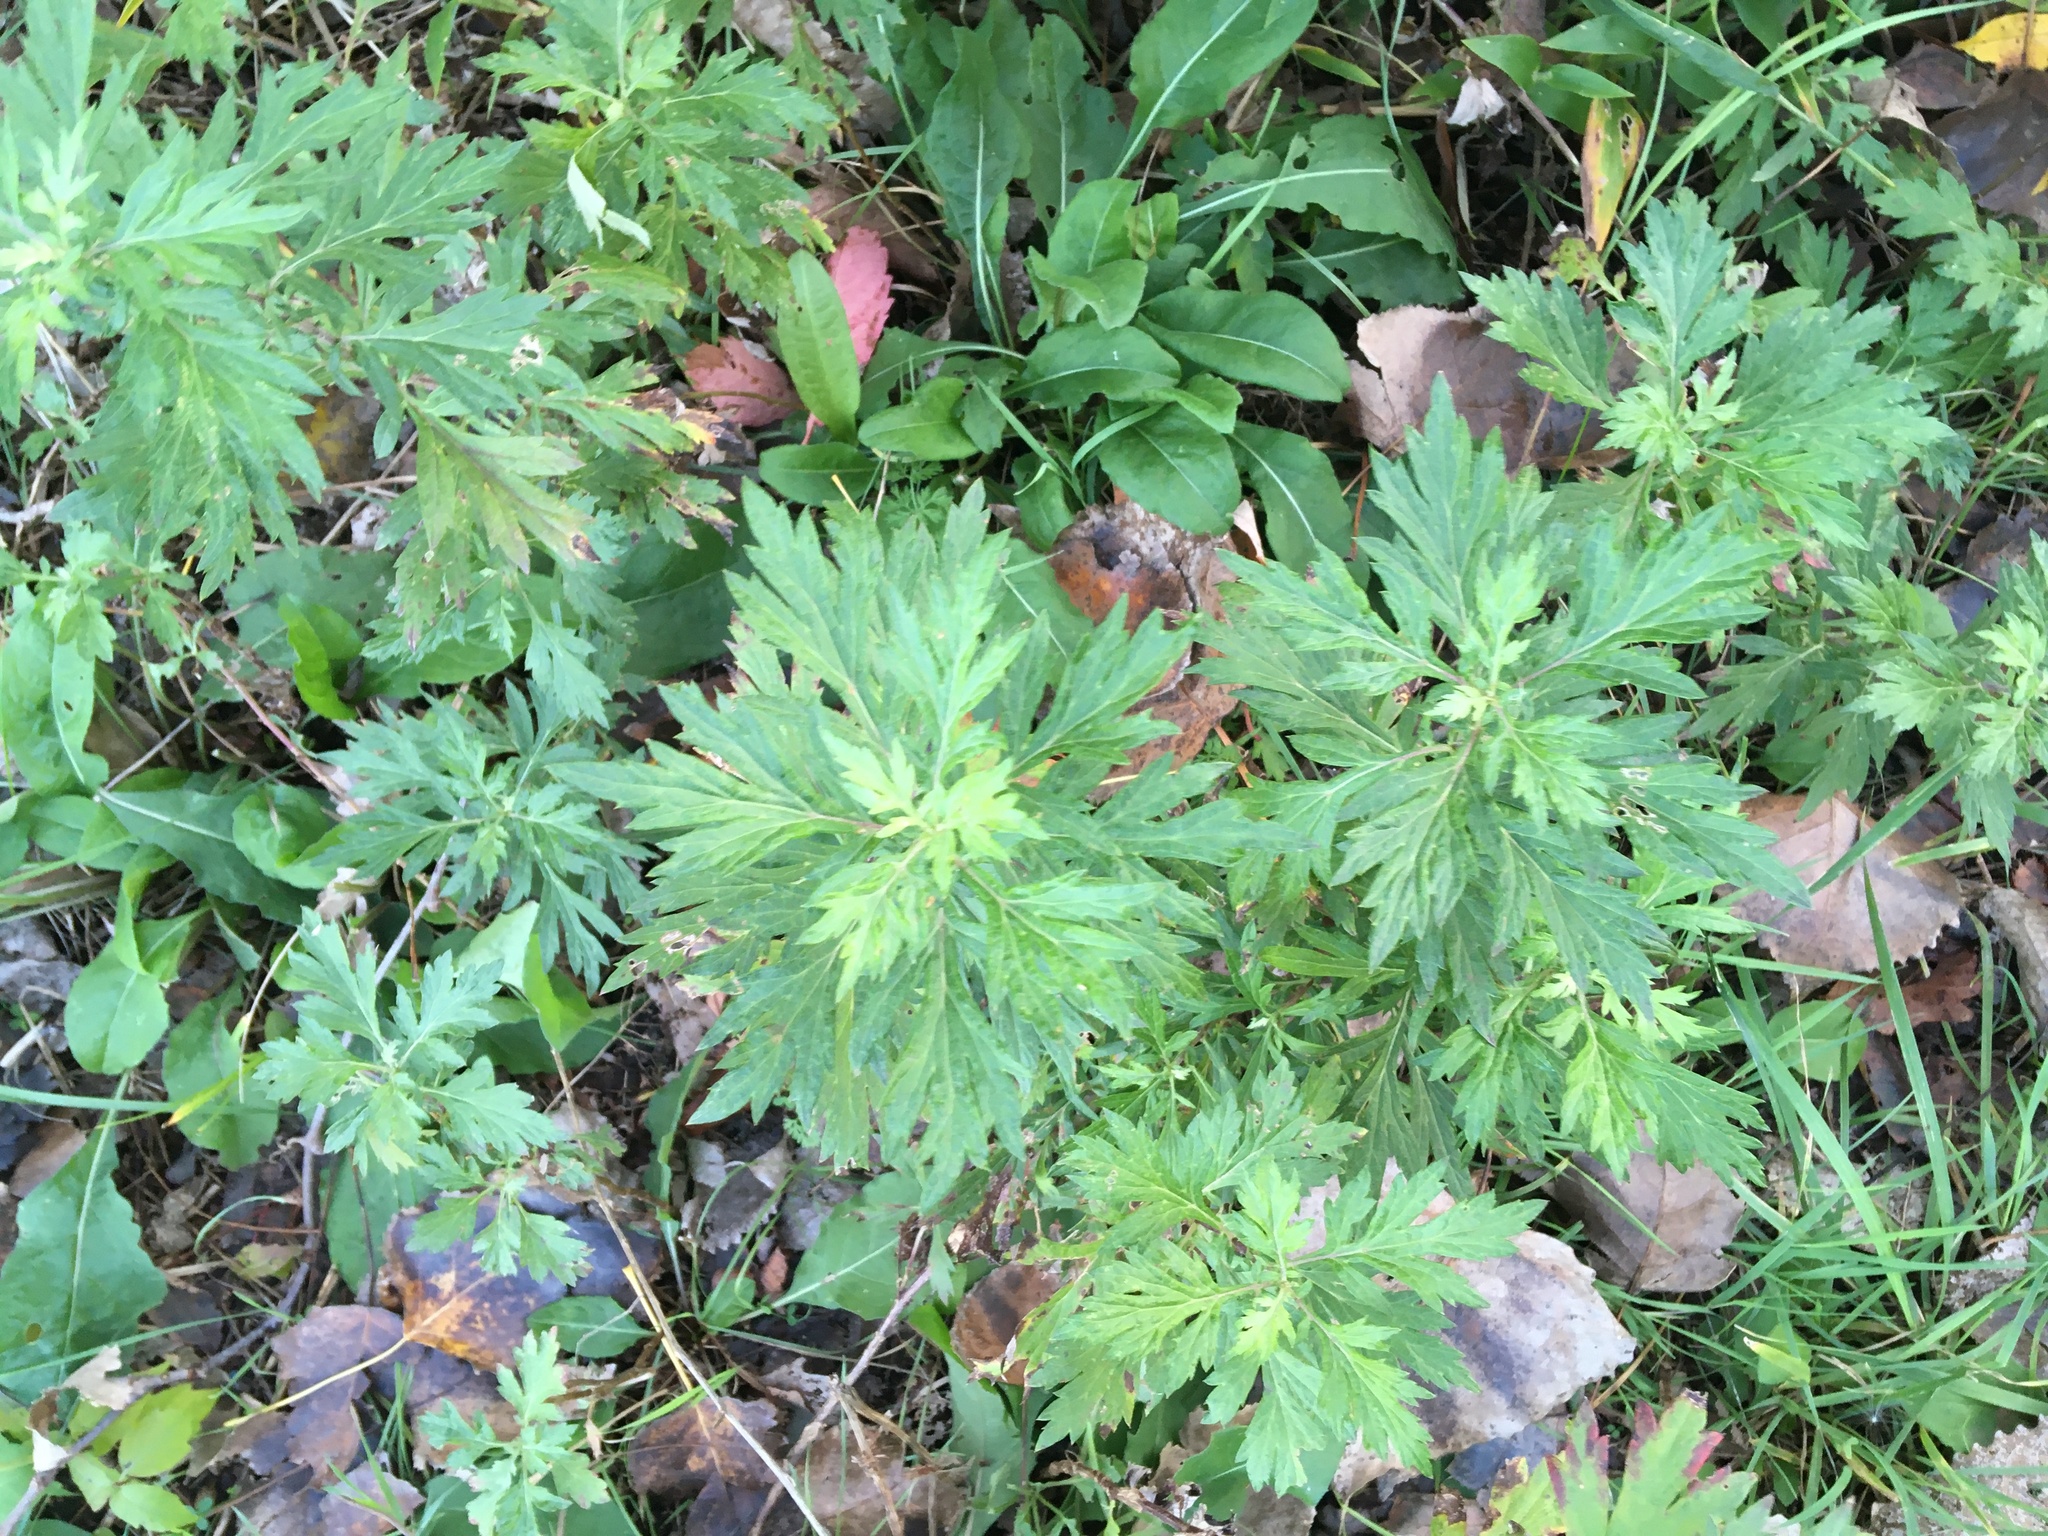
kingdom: Plantae
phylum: Tracheophyta
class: Magnoliopsida
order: Asterales
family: Asteraceae
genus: Artemisia
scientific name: Artemisia vulgaris
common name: Mugwort
